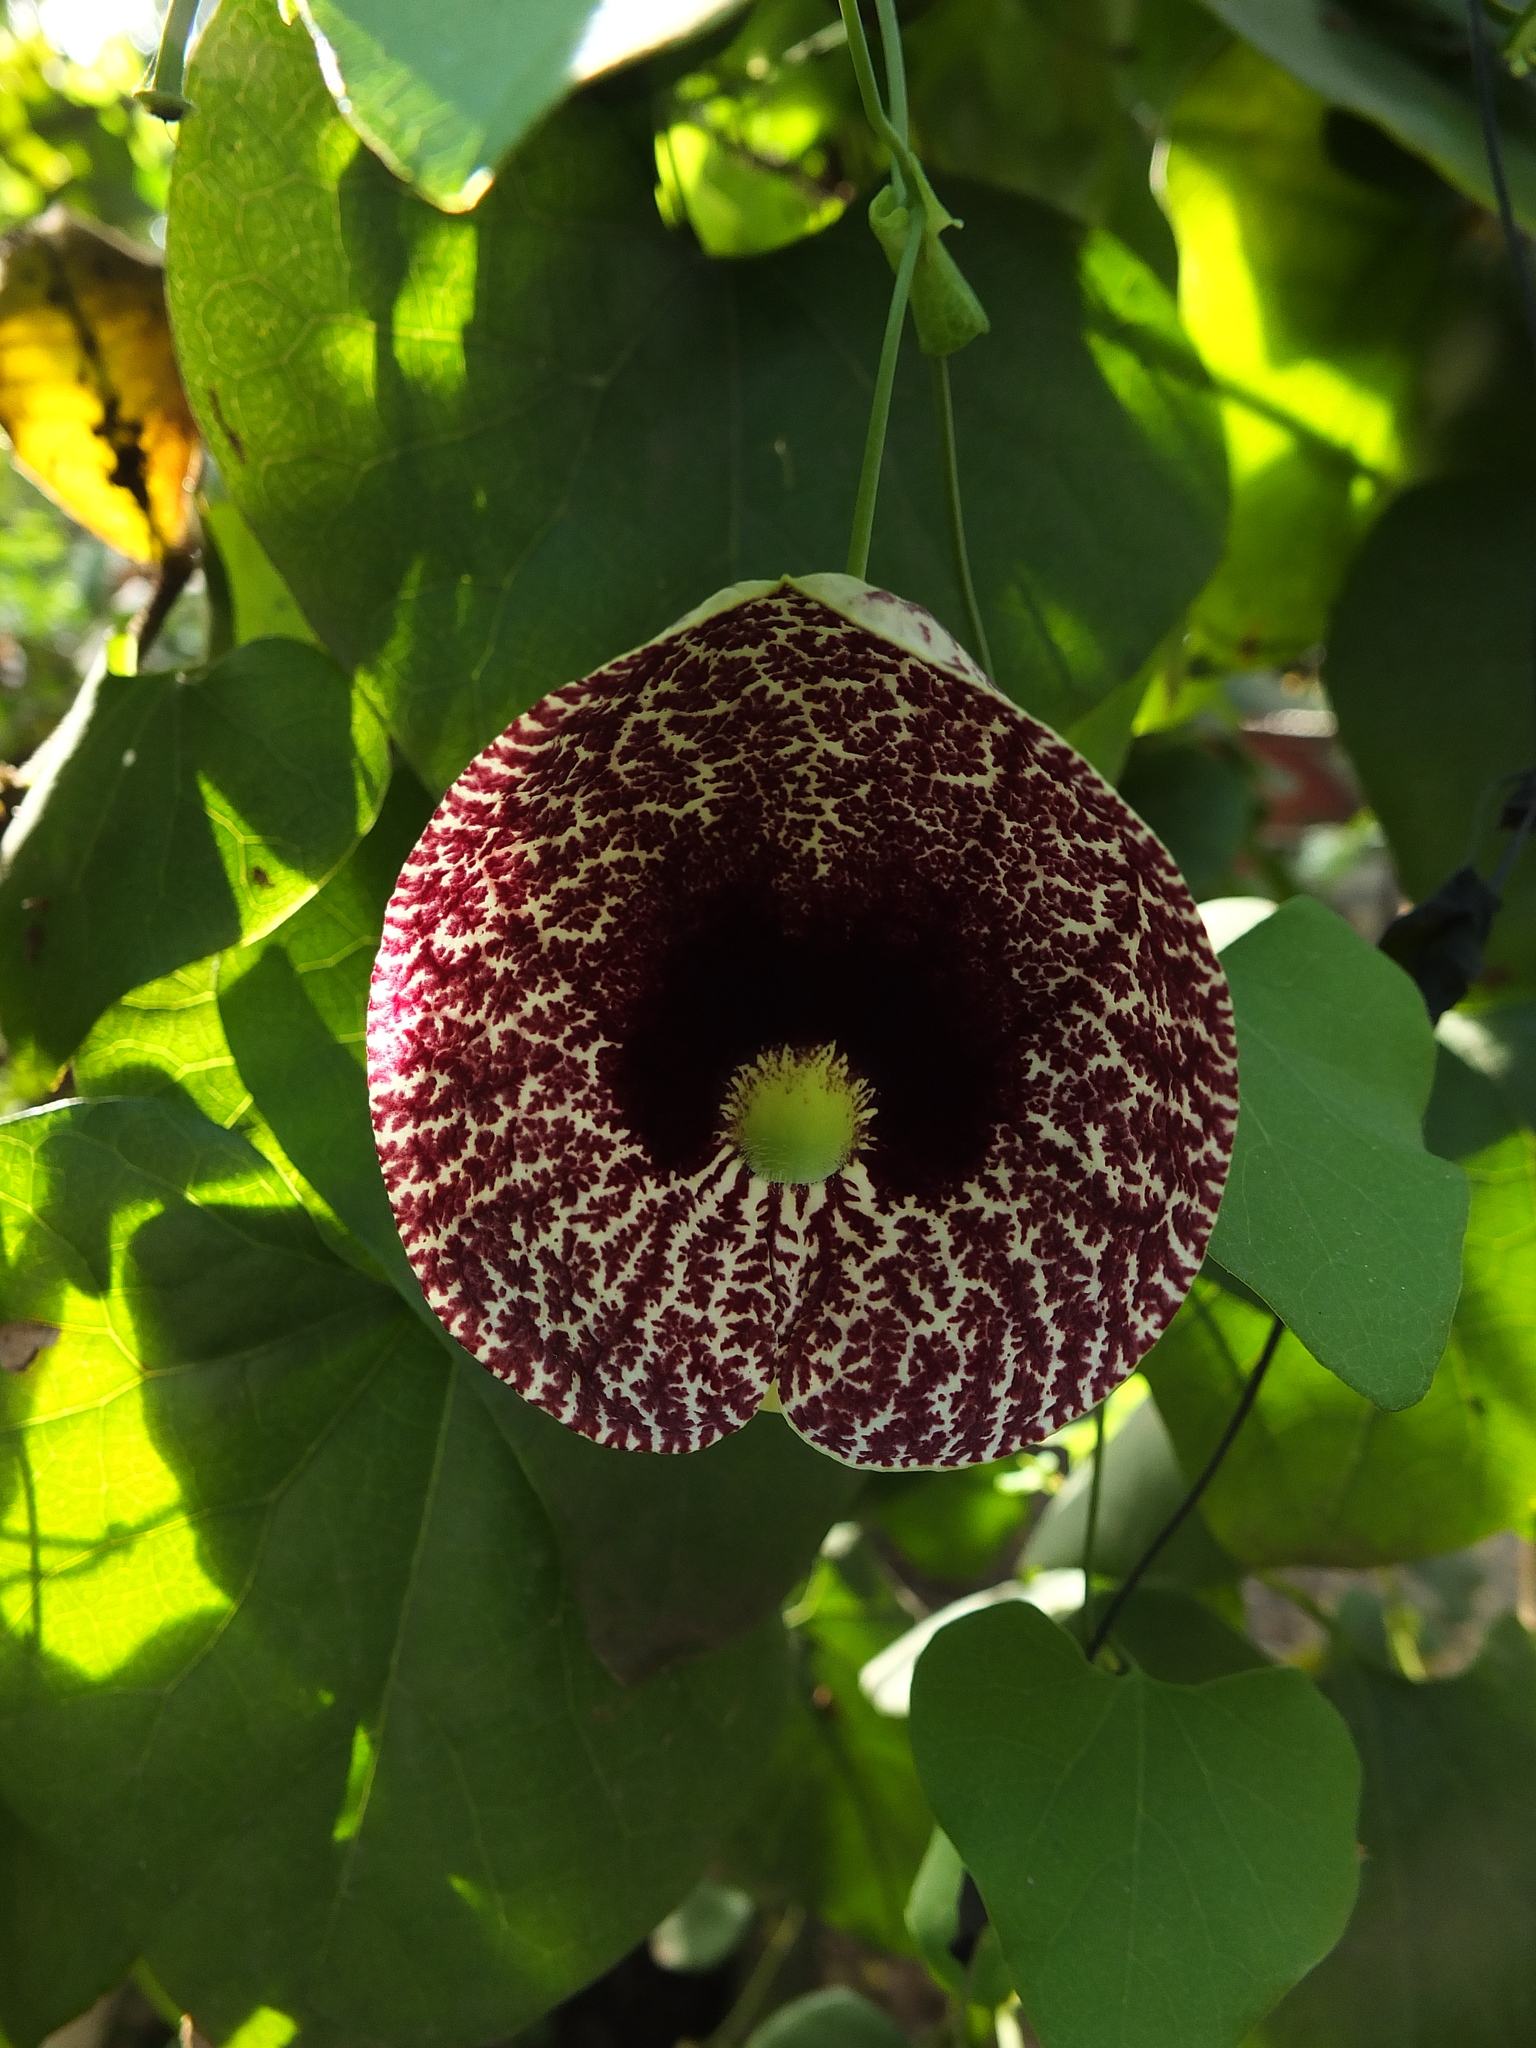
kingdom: Plantae
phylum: Tracheophyta
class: Magnoliopsida
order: Piperales
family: Aristolochiaceae
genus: Aristolochia
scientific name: Aristolochia littoralis
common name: Duck
